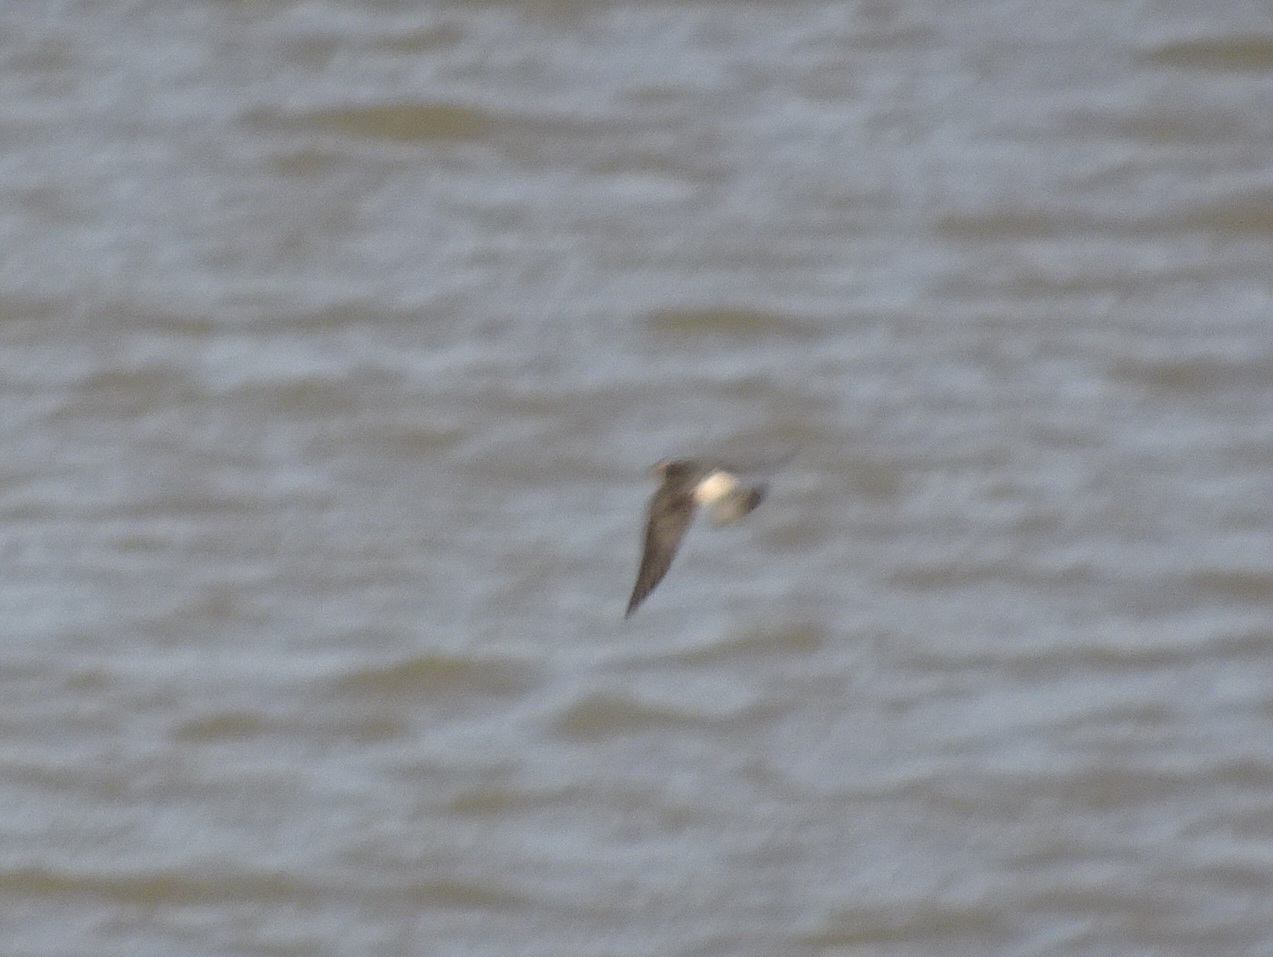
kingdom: Animalia
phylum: Chordata
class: Aves
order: Passeriformes
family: Hirundinidae
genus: Petrochelidon
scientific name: Petrochelidon pyrrhonota
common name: American cliff swallow
